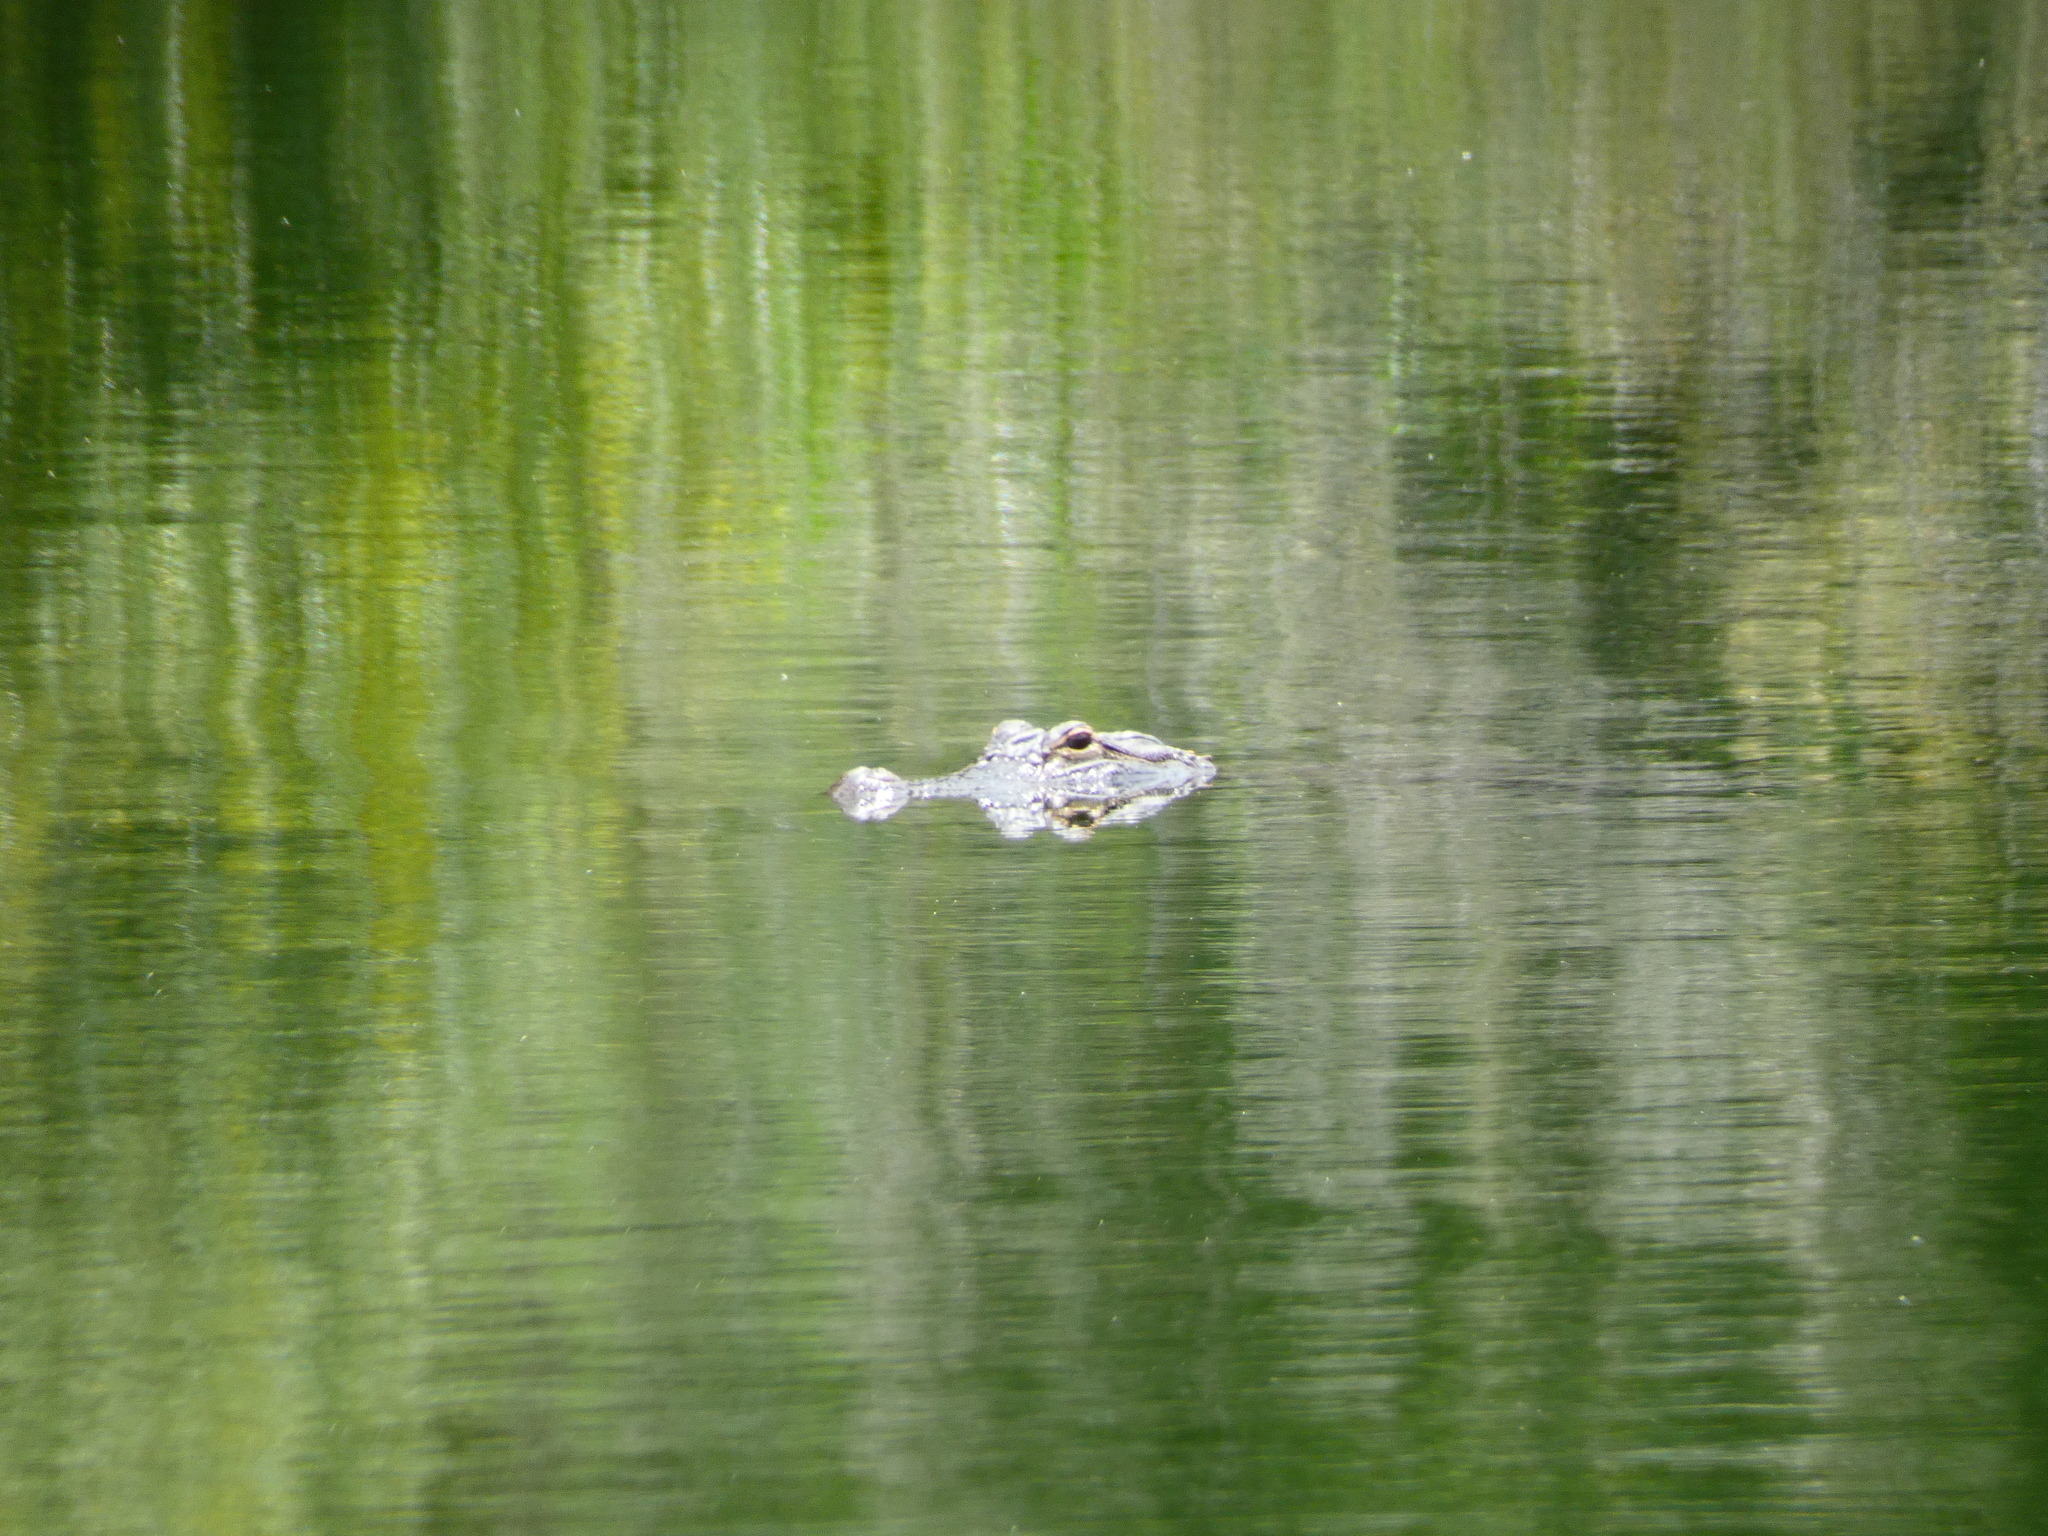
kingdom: Animalia
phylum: Chordata
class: Crocodylia
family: Alligatoridae
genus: Alligator
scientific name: Alligator mississippiensis
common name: American alligator
